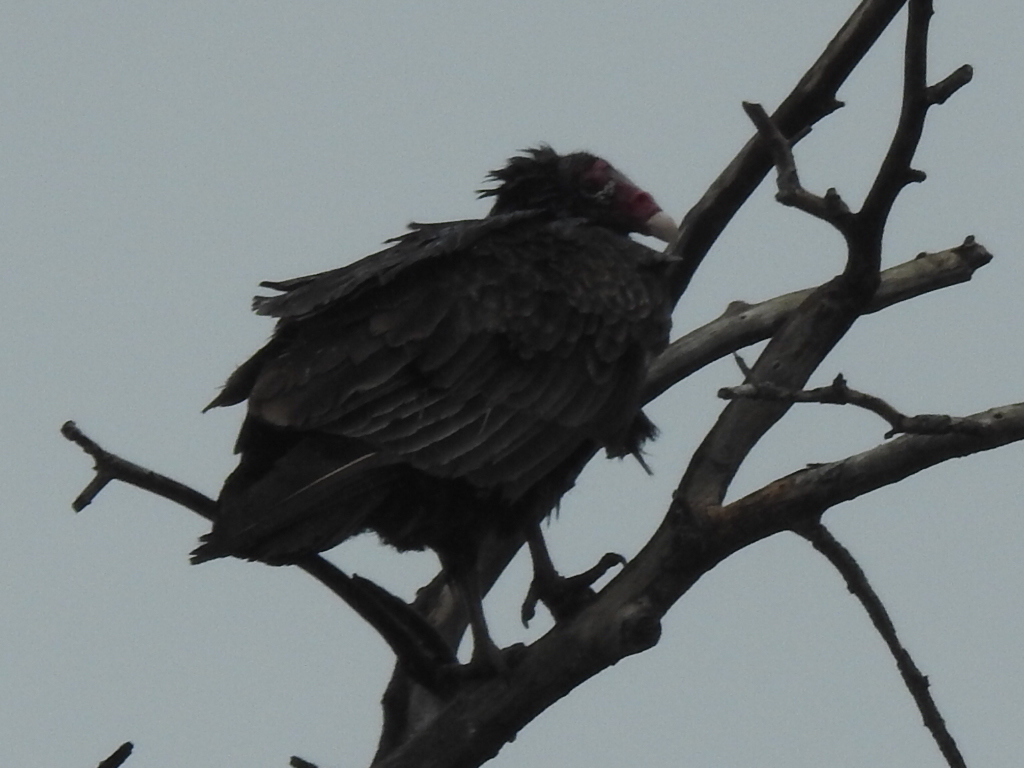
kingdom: Animalia
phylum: Chordata
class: Aves
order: Accipitriformes
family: Cathartidae
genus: Cathartes
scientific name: Cathartes aura
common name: Turkey vulture
